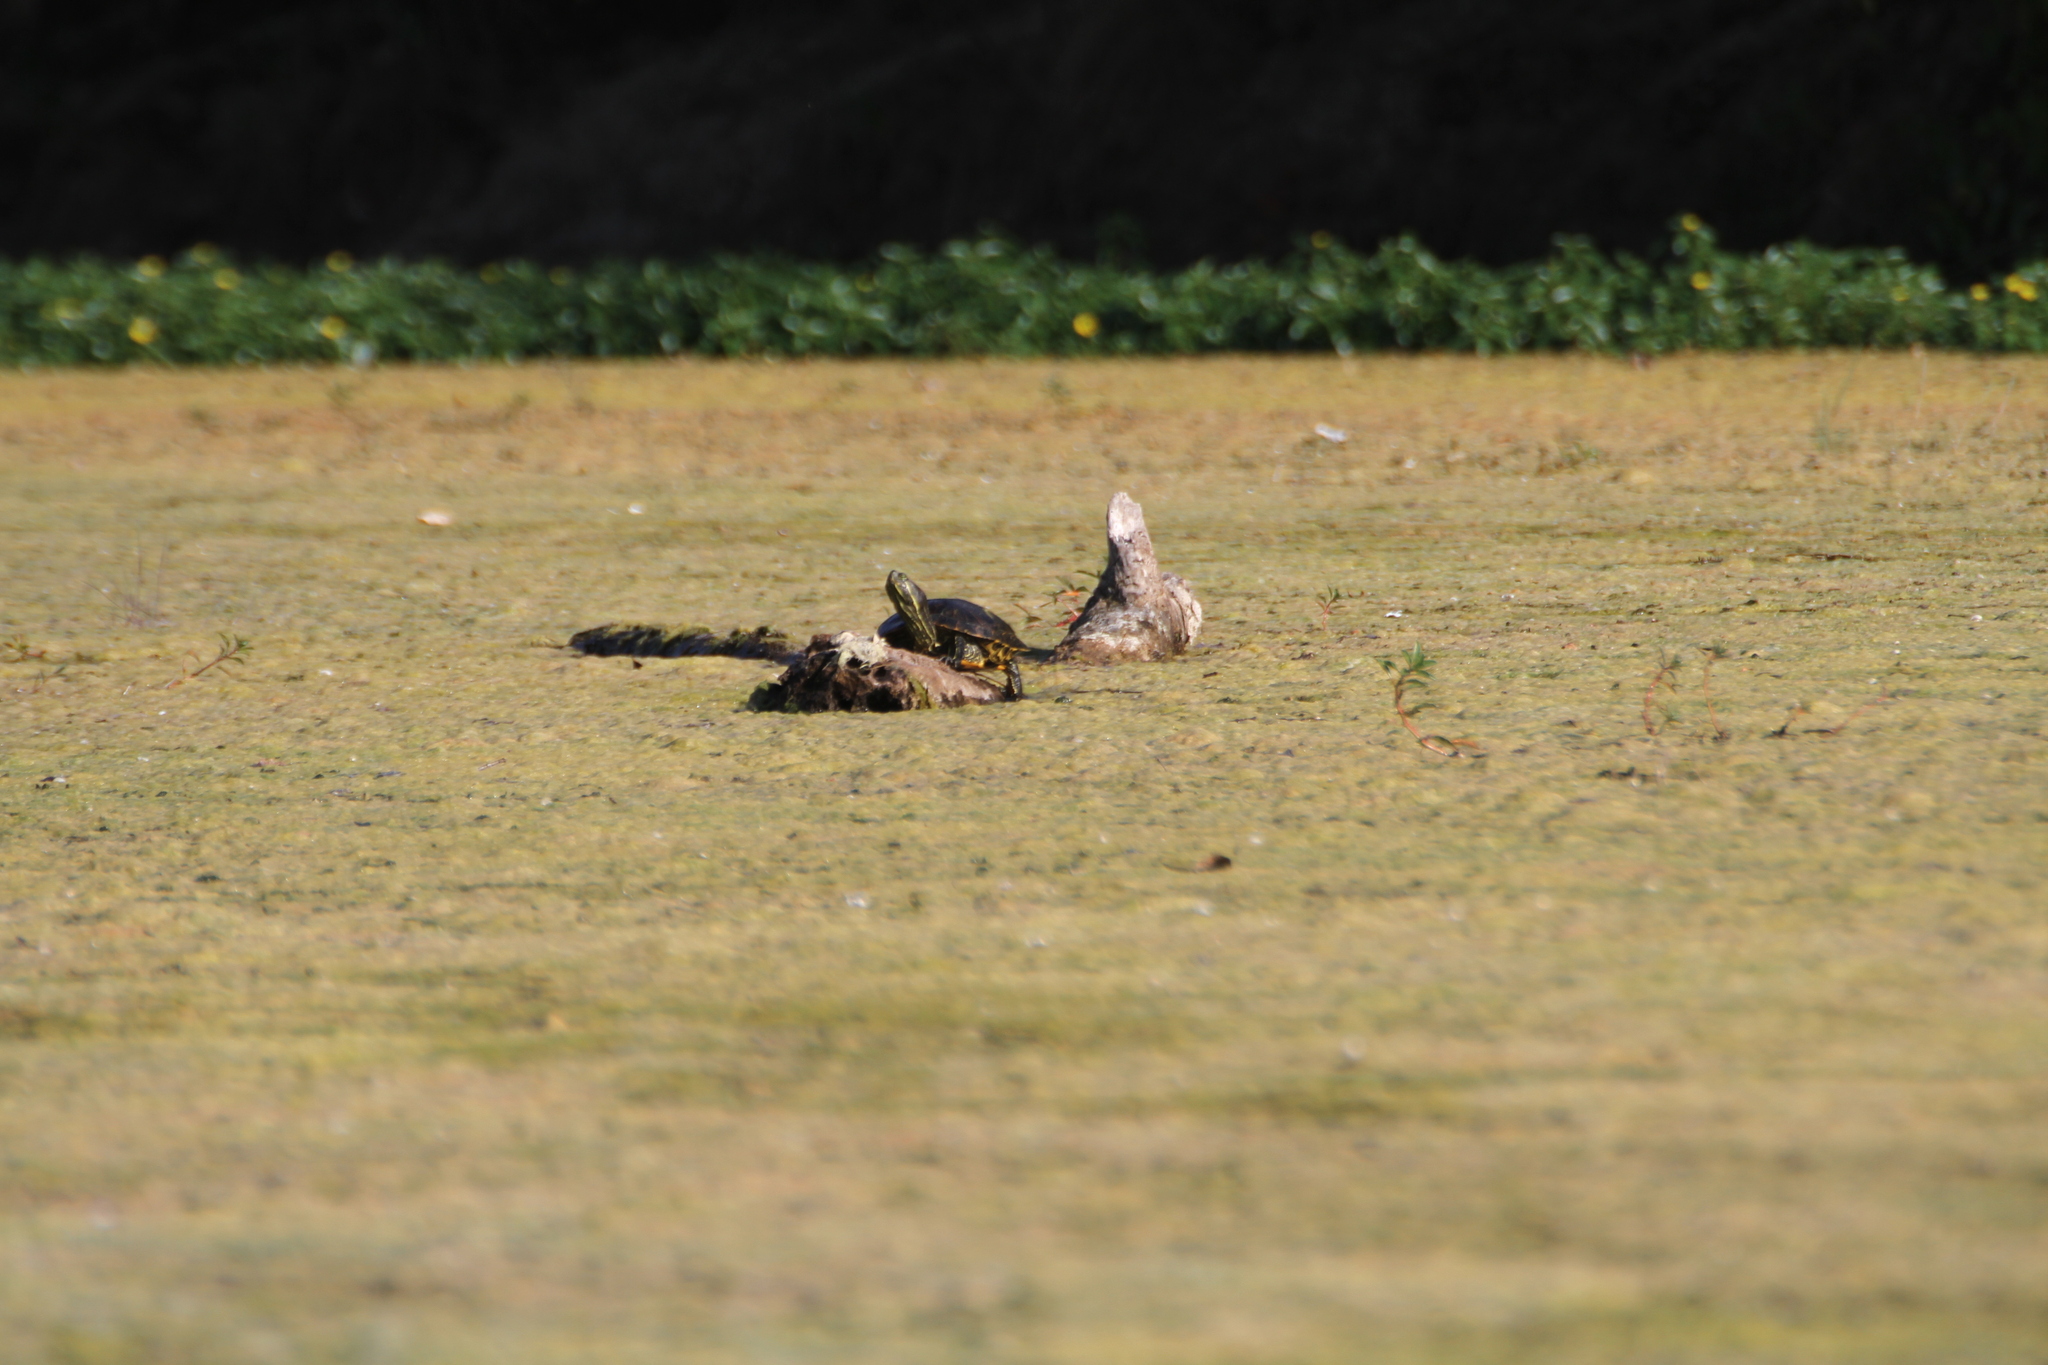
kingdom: Animalia
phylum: Chordata
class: Testudines
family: Emydidae
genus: Trachemys
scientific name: Trachemys scripta
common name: Slider
